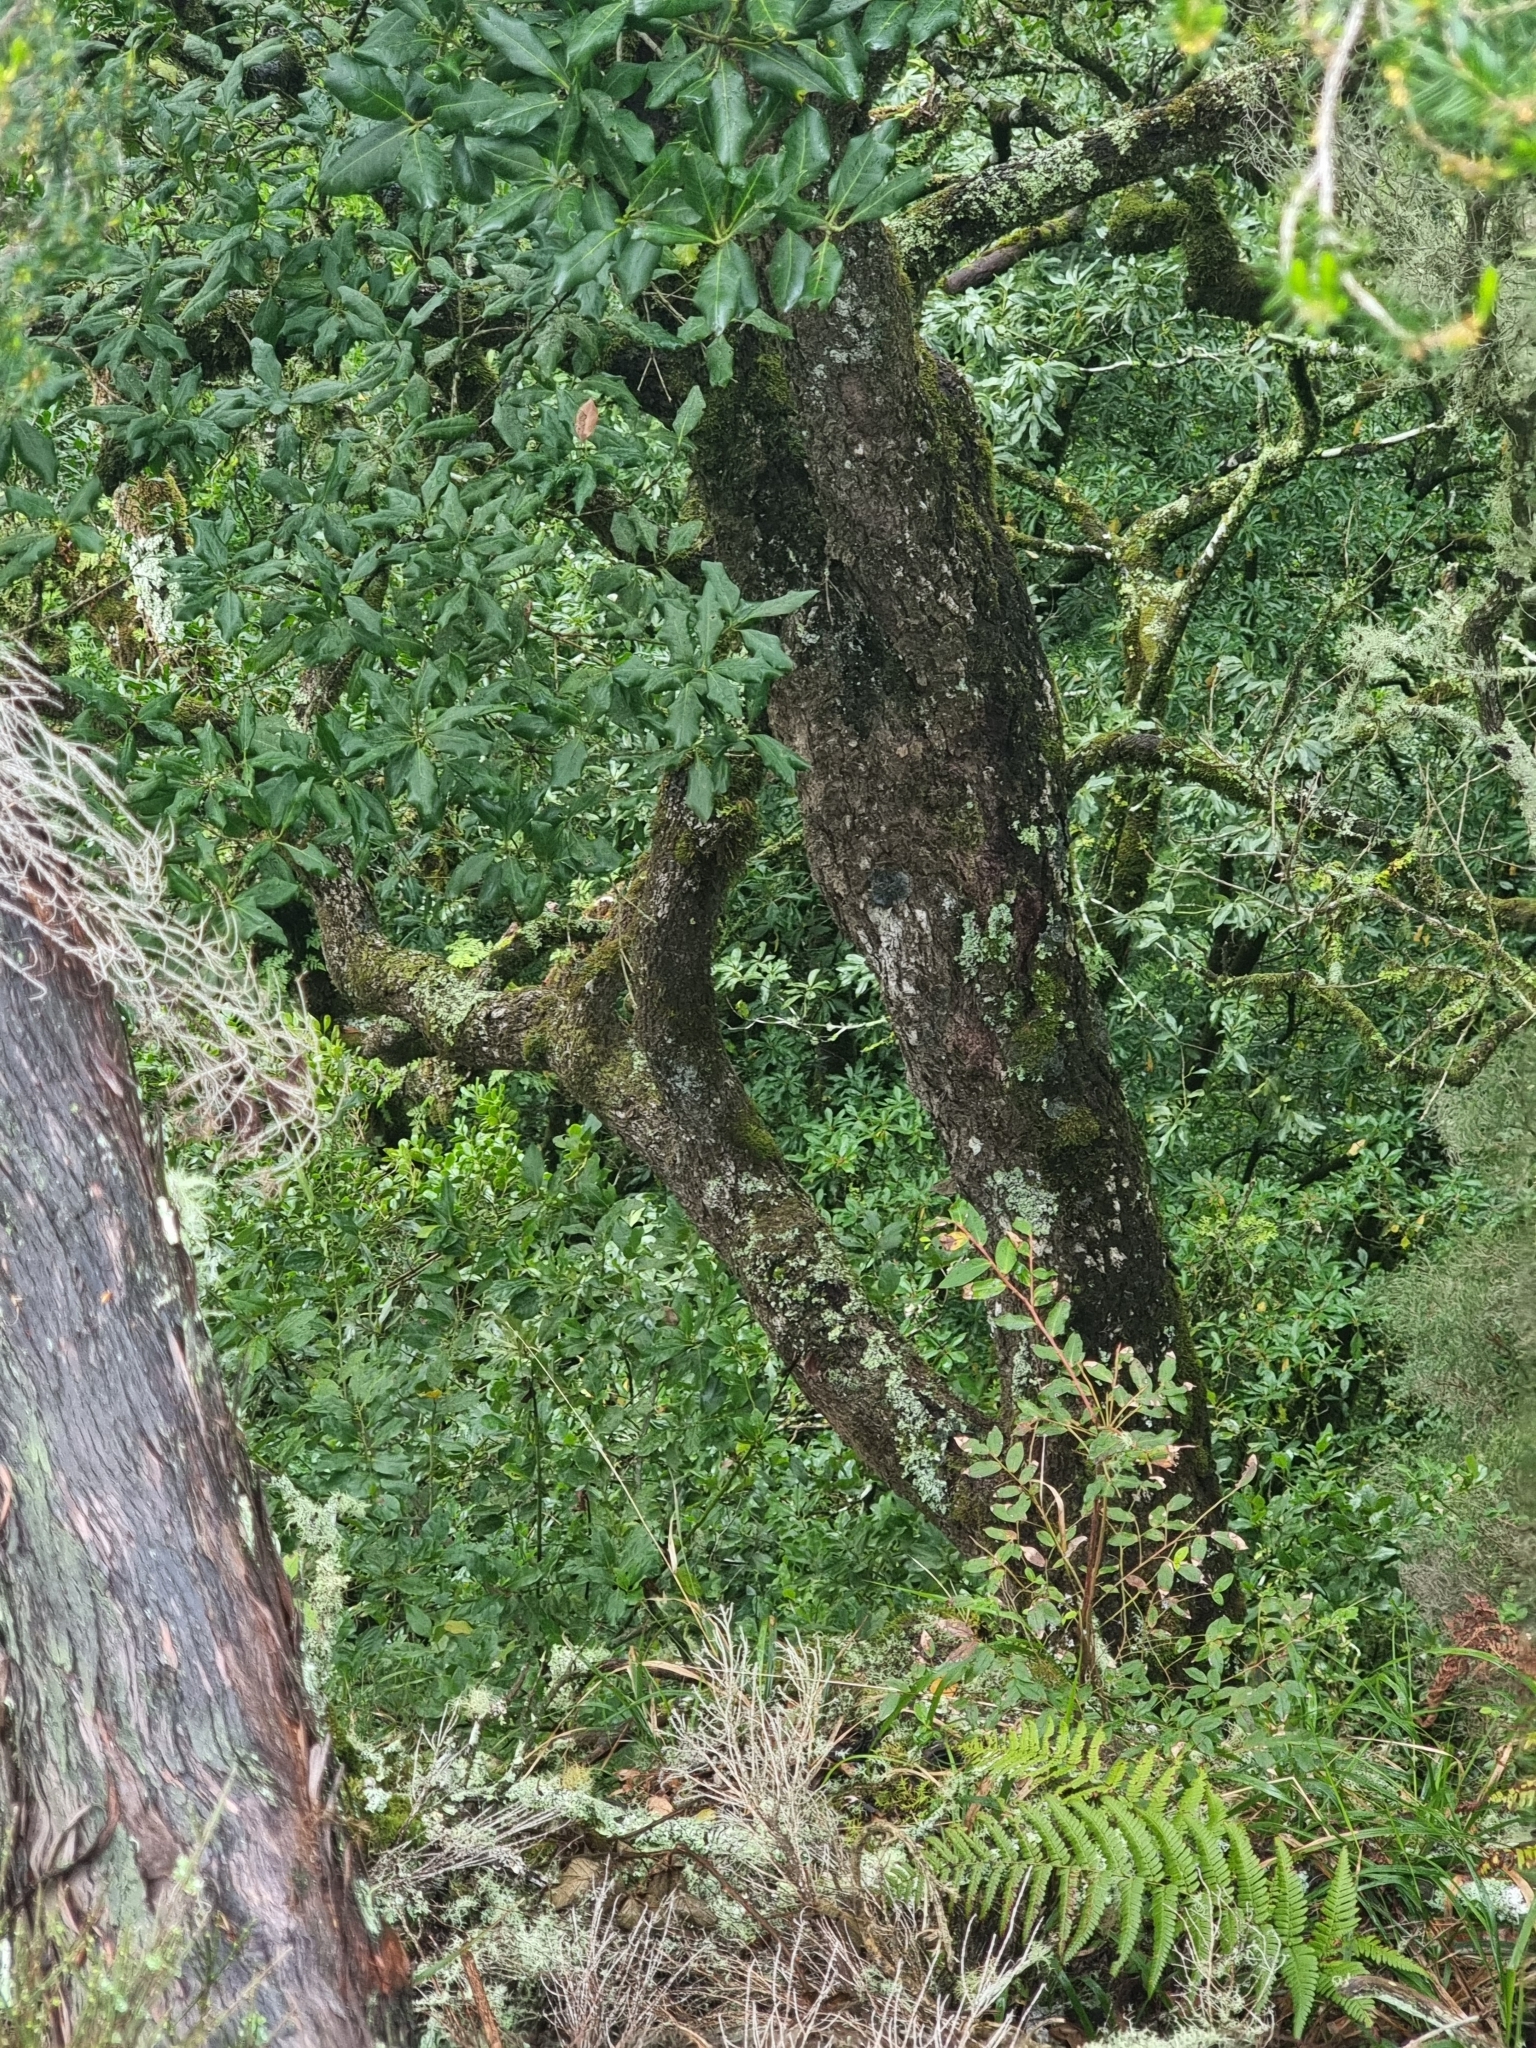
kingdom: Plantae
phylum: Tracheophyta
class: Magnoliopsida
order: Lamiales
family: Oleaceae
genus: Picconia
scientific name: Picconia excelsa
